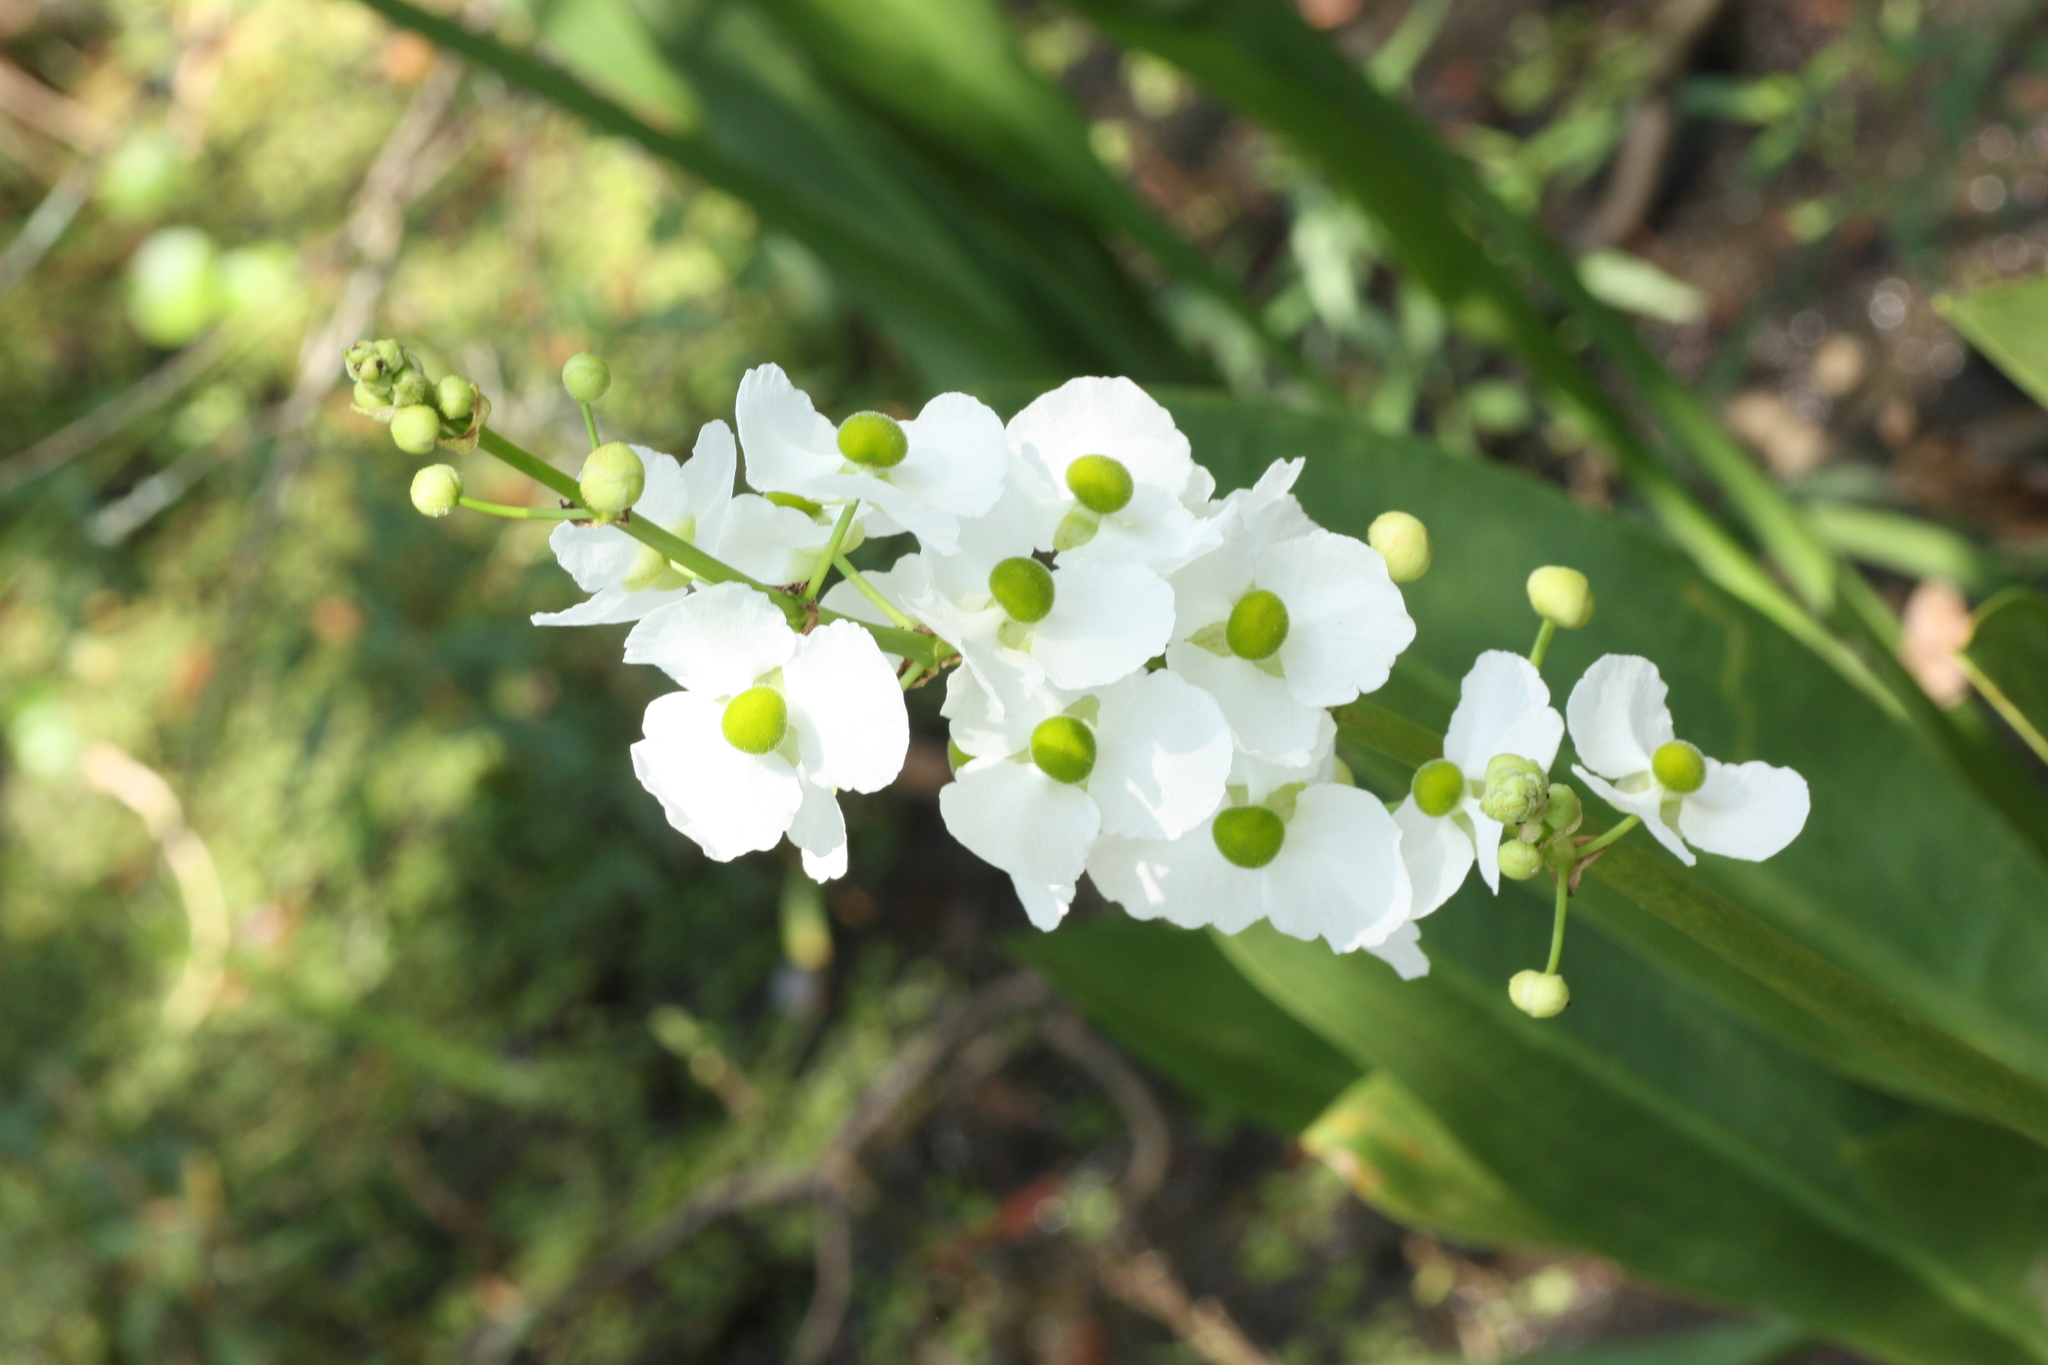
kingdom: Plantae
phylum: Tracheophyta
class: Liliopsida
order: Alismatales
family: Alismataceae
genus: Sagittaria
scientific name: Sagittaria lancifolia
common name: Lance-leaf arrowhead
